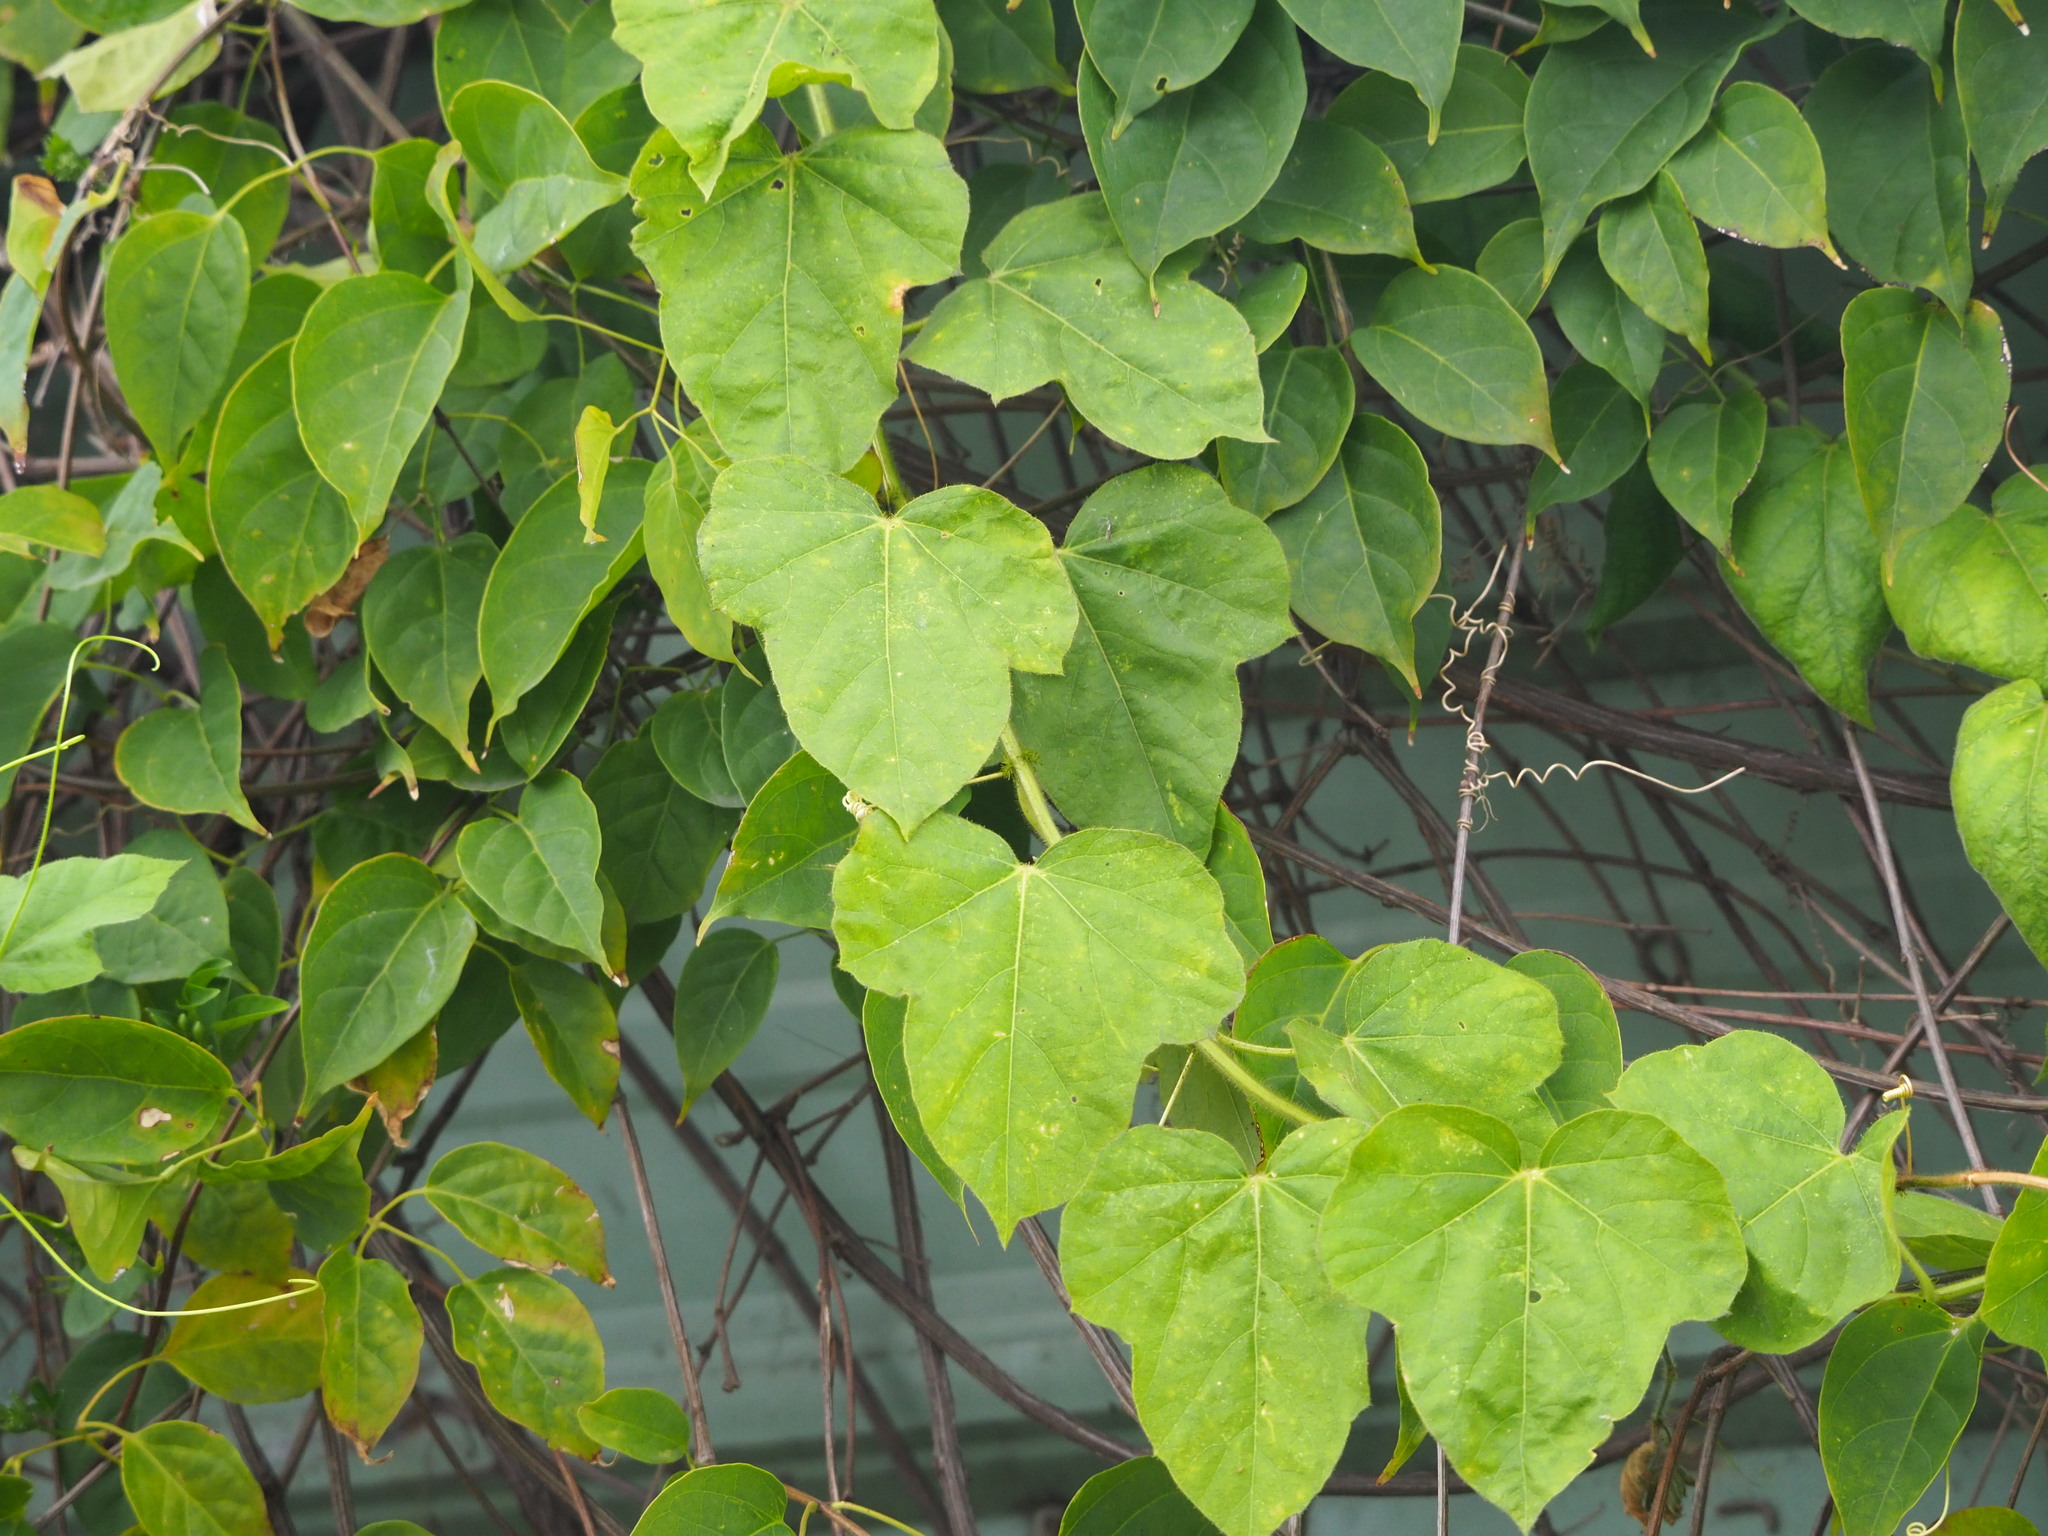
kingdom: Plantae
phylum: Tracheophyta
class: Magnoliopsida
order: Malpighiales
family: Passifloraceae
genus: Passiflora
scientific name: Passiflora vesicaria
